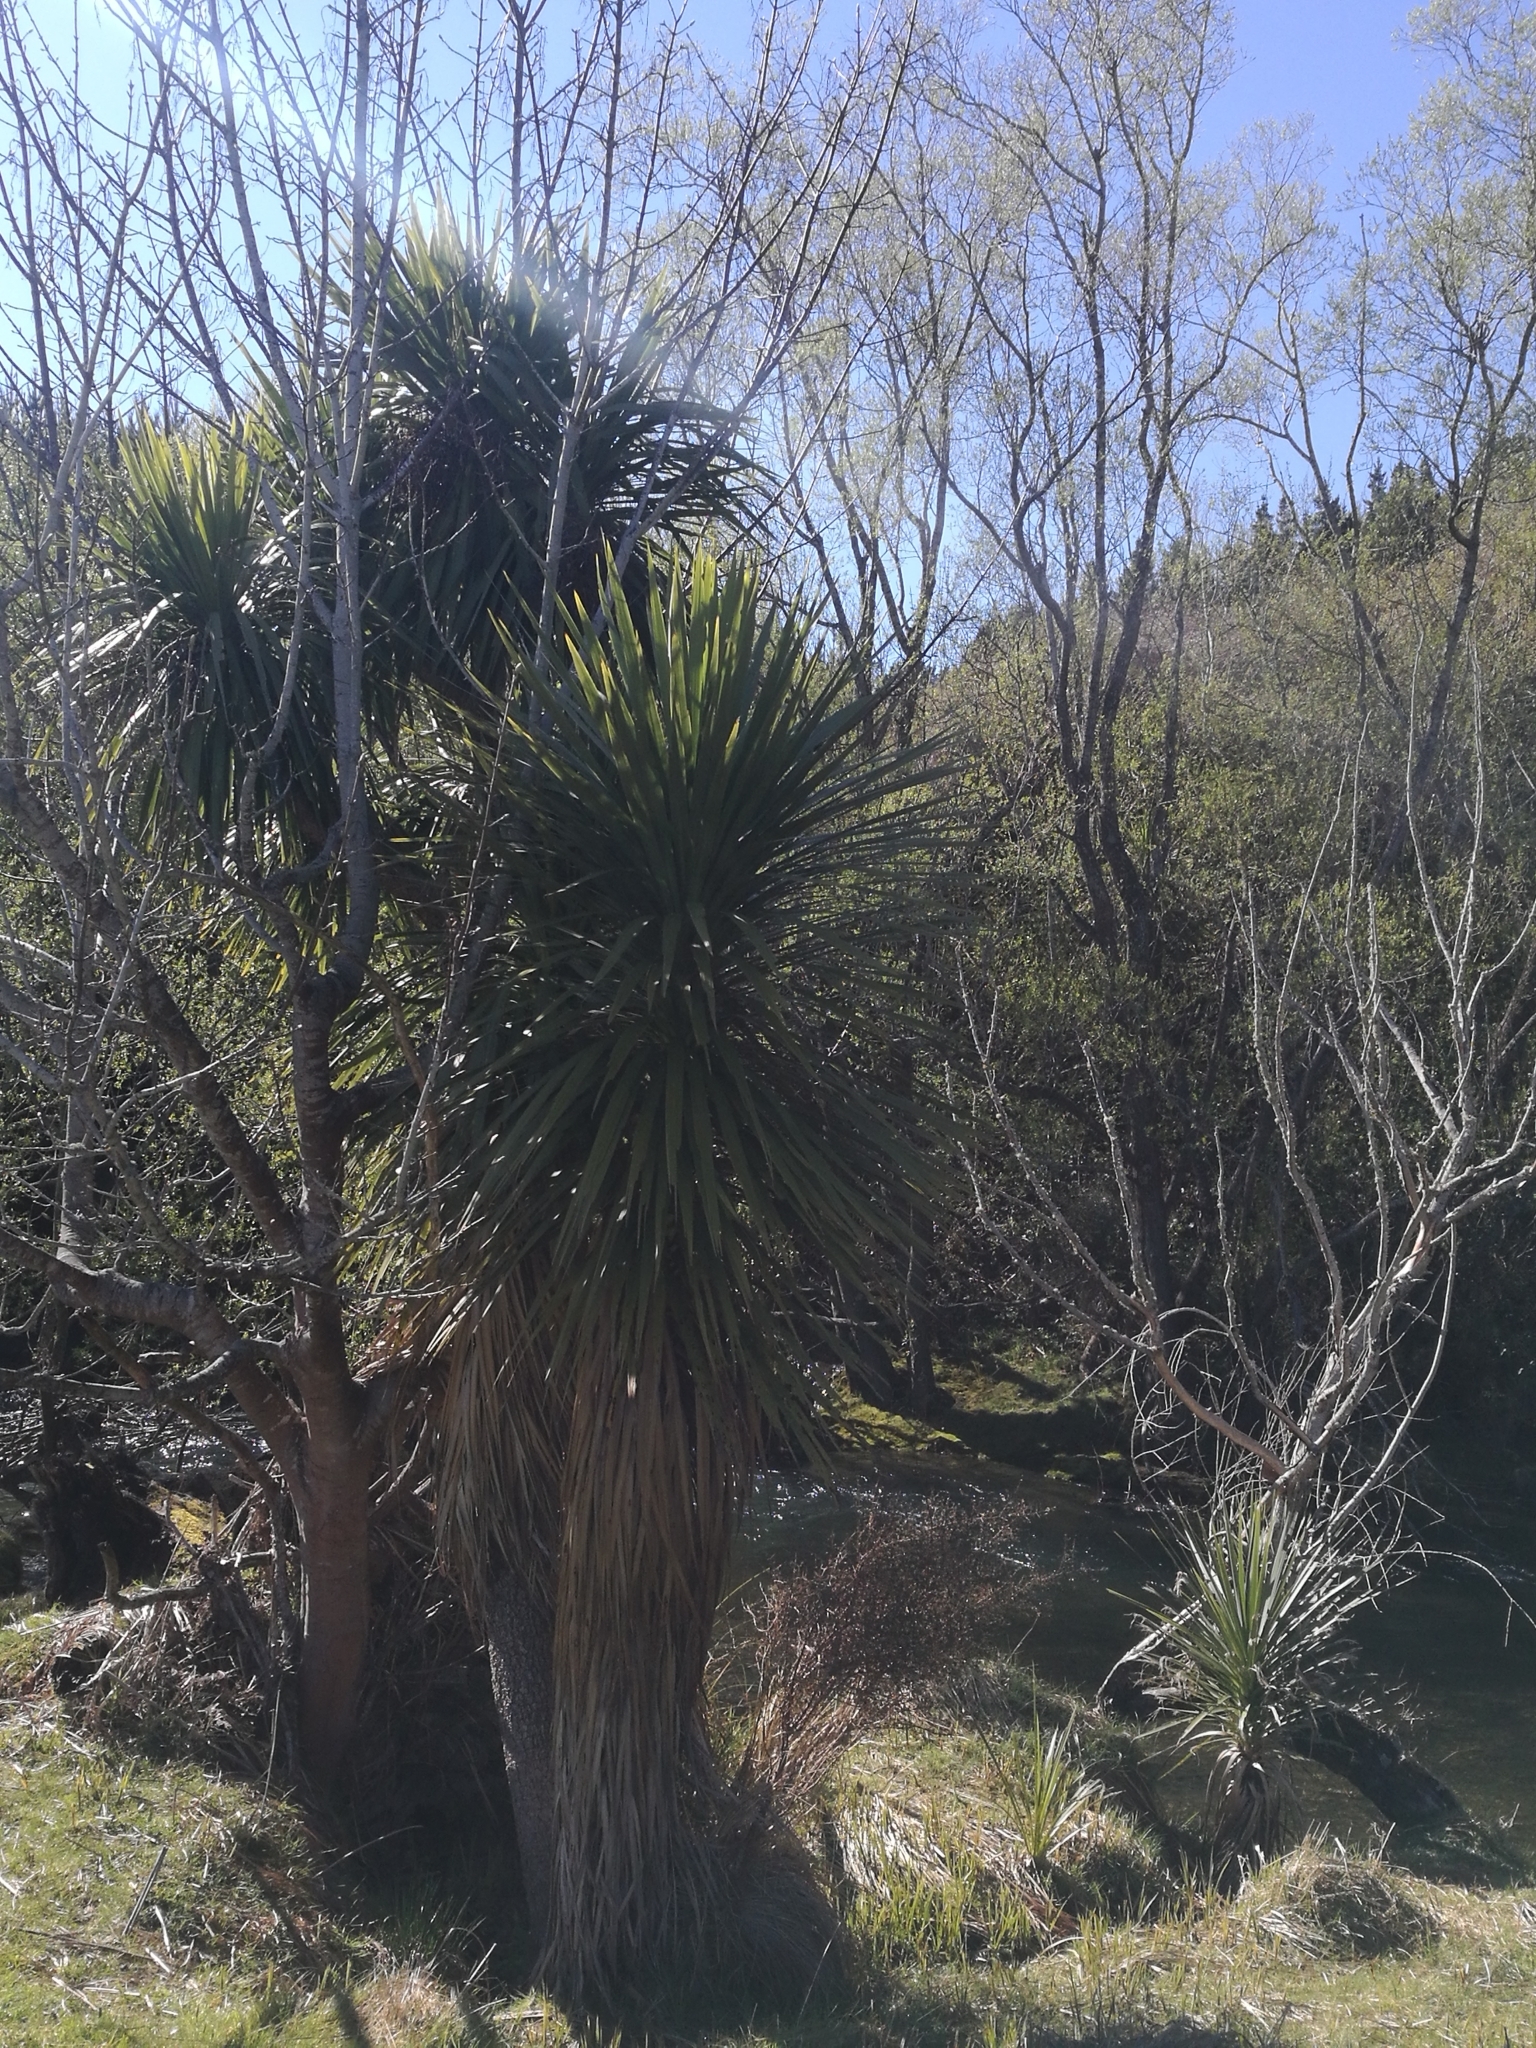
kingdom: Plantae
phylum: Tracheophyta
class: Liliopsida
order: Asparagales
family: Asparagaceae
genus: Cordyline
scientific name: Cordyline australis
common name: Cabbage-palm
